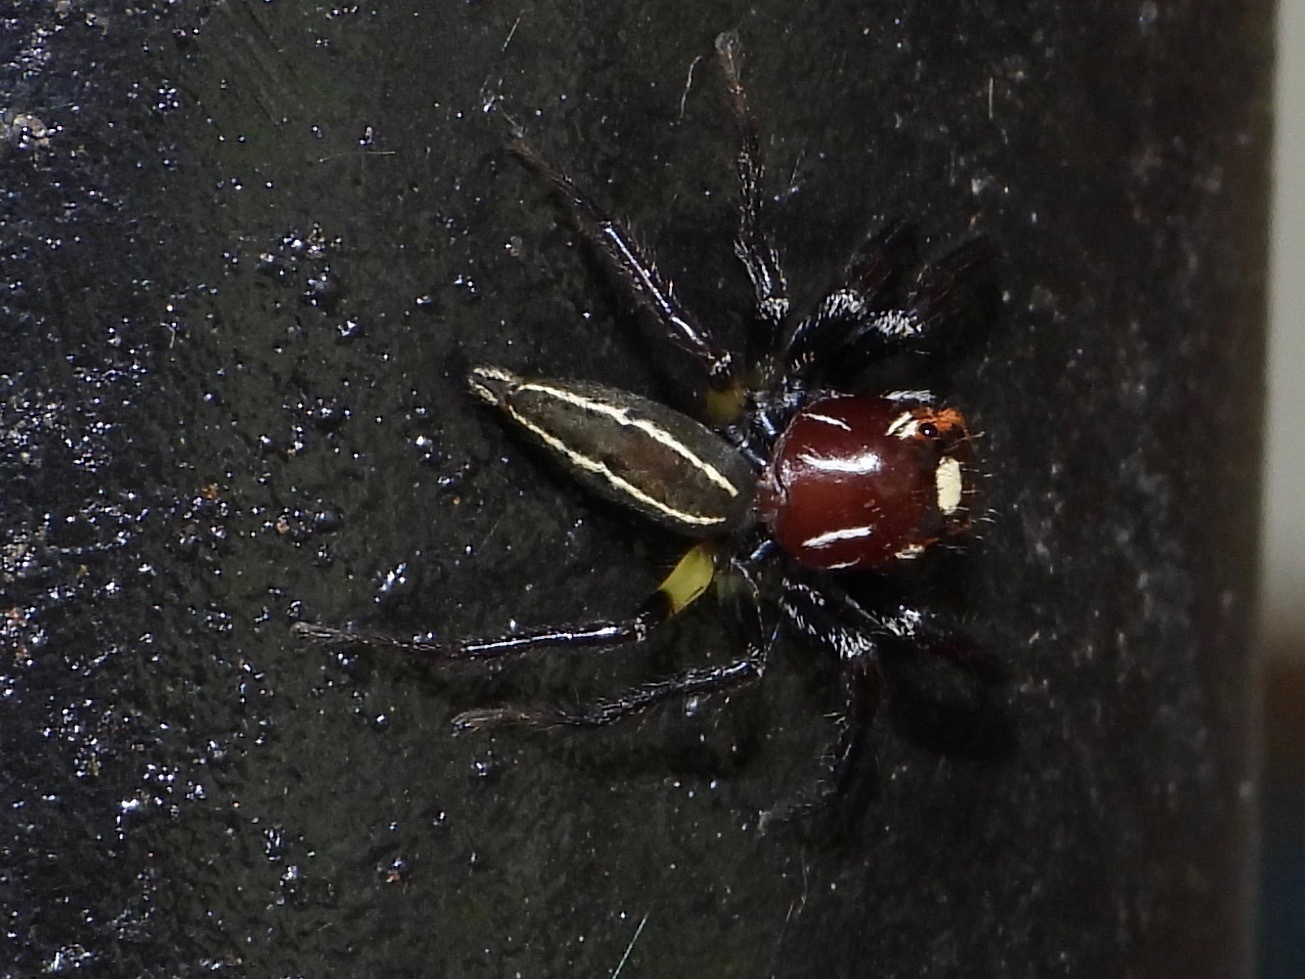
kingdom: Animalia
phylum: Arthropoda
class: Arachnida
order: Araneae
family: Salticidae
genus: Colonus
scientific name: Colonus sylvanus
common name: Jumping spiders
